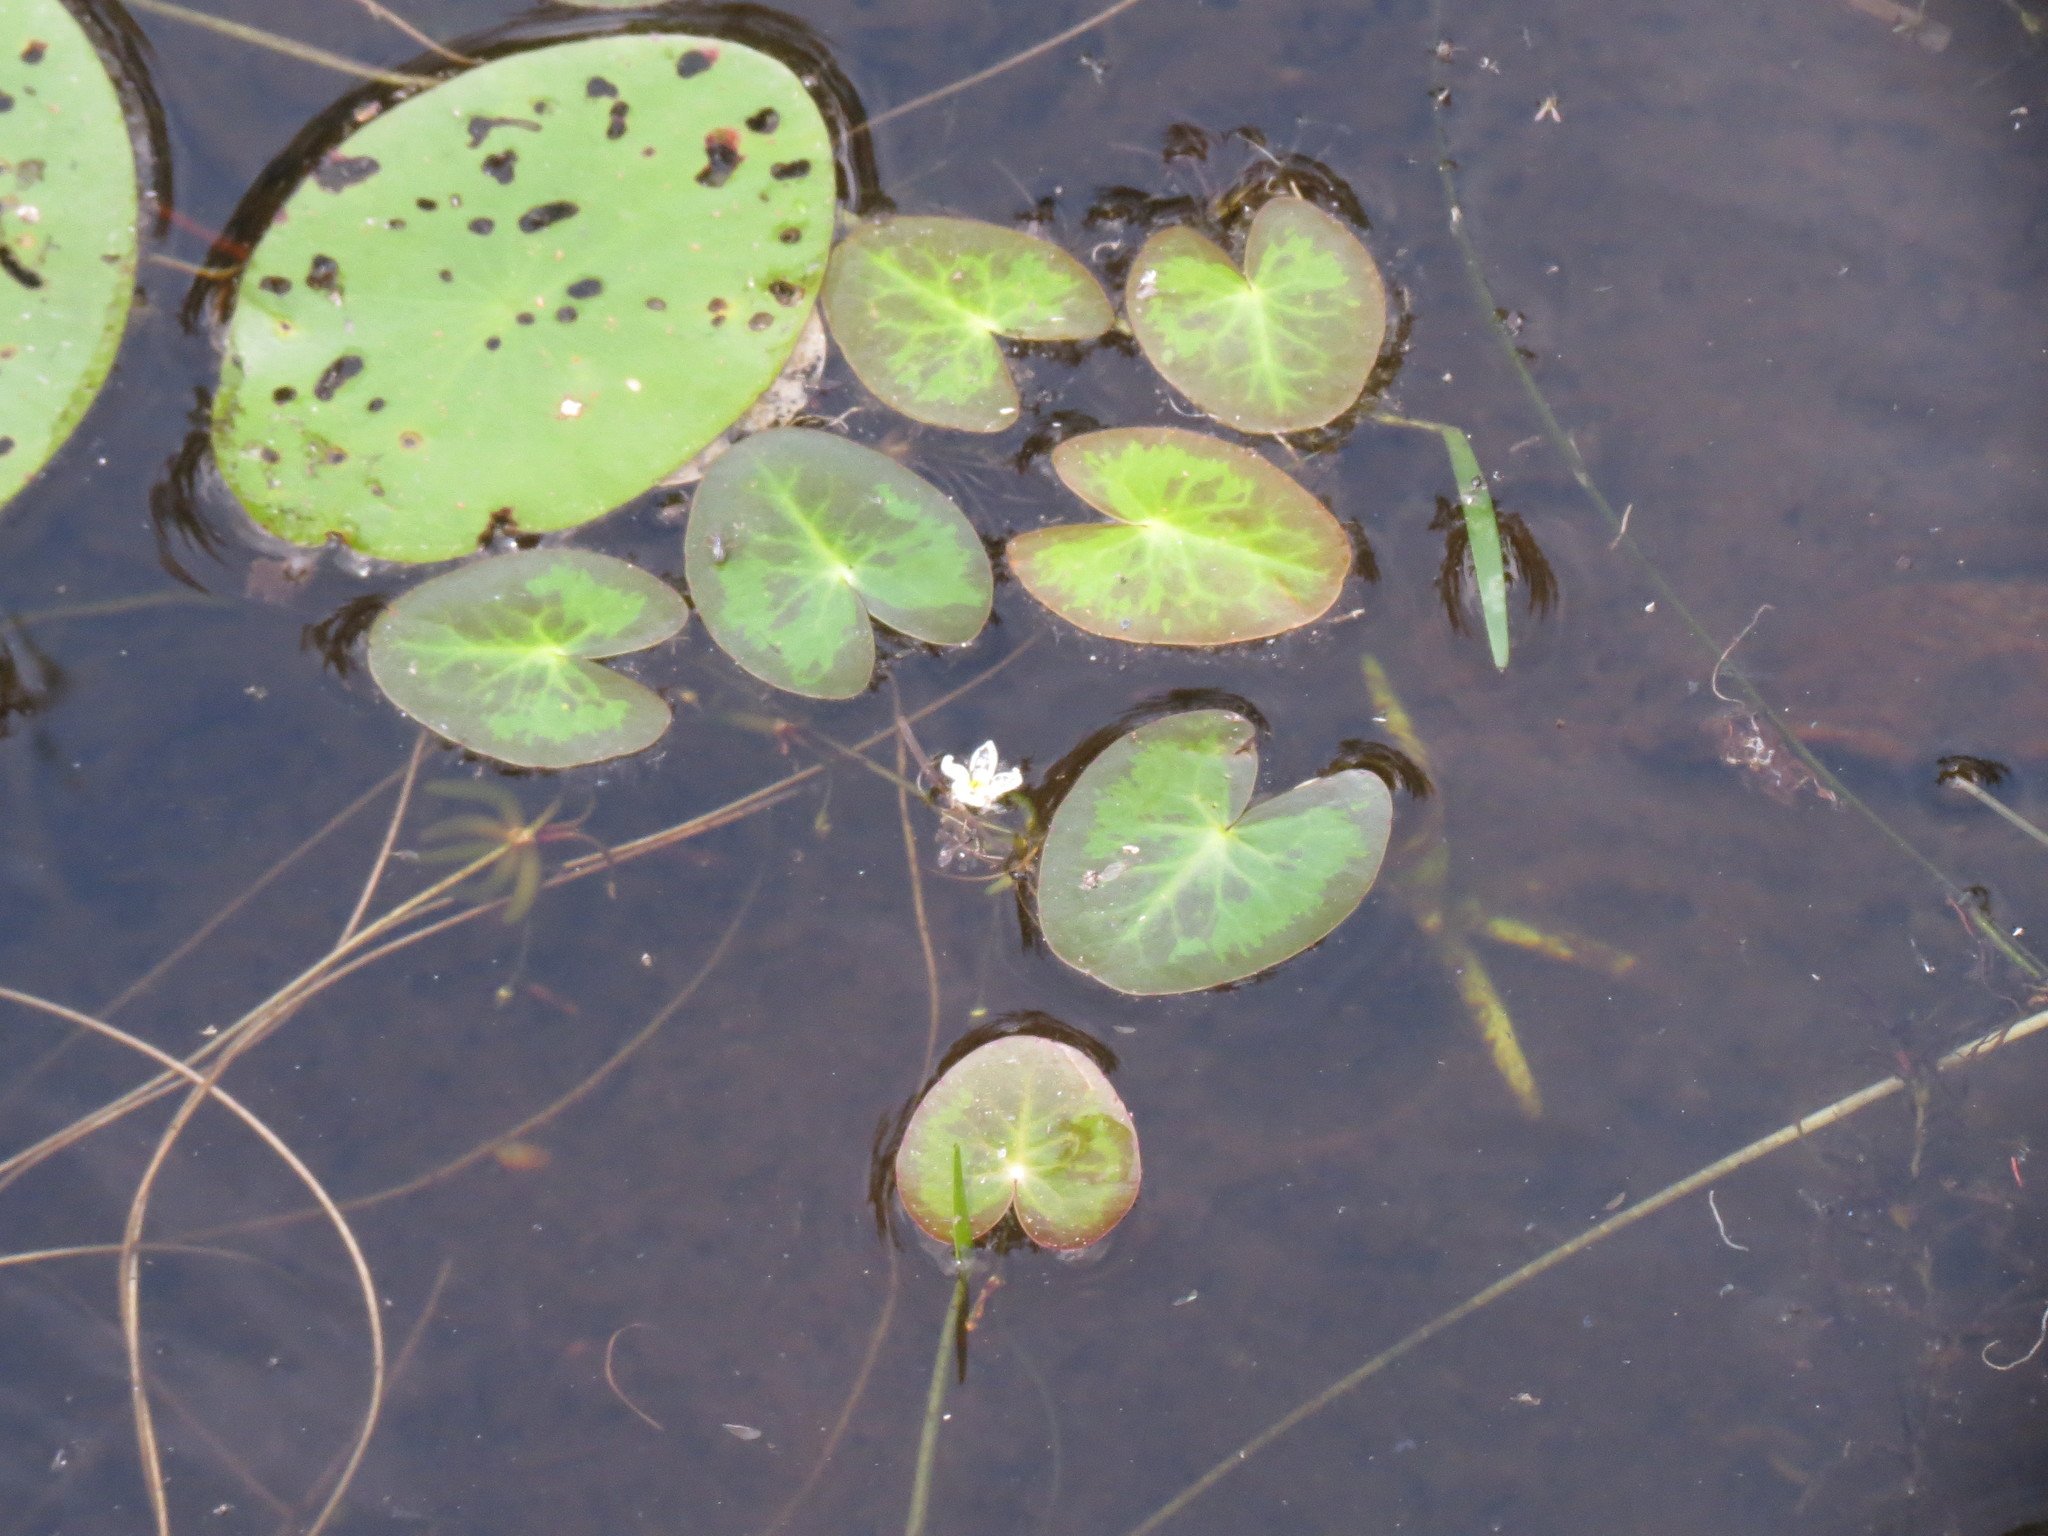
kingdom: Plantae
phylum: Tracheophyta
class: Magnoliopsida
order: Asterales
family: Menyanthaceae
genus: Nymphoides
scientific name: Nymphoides cordata
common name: Eight-angled floatingheart
